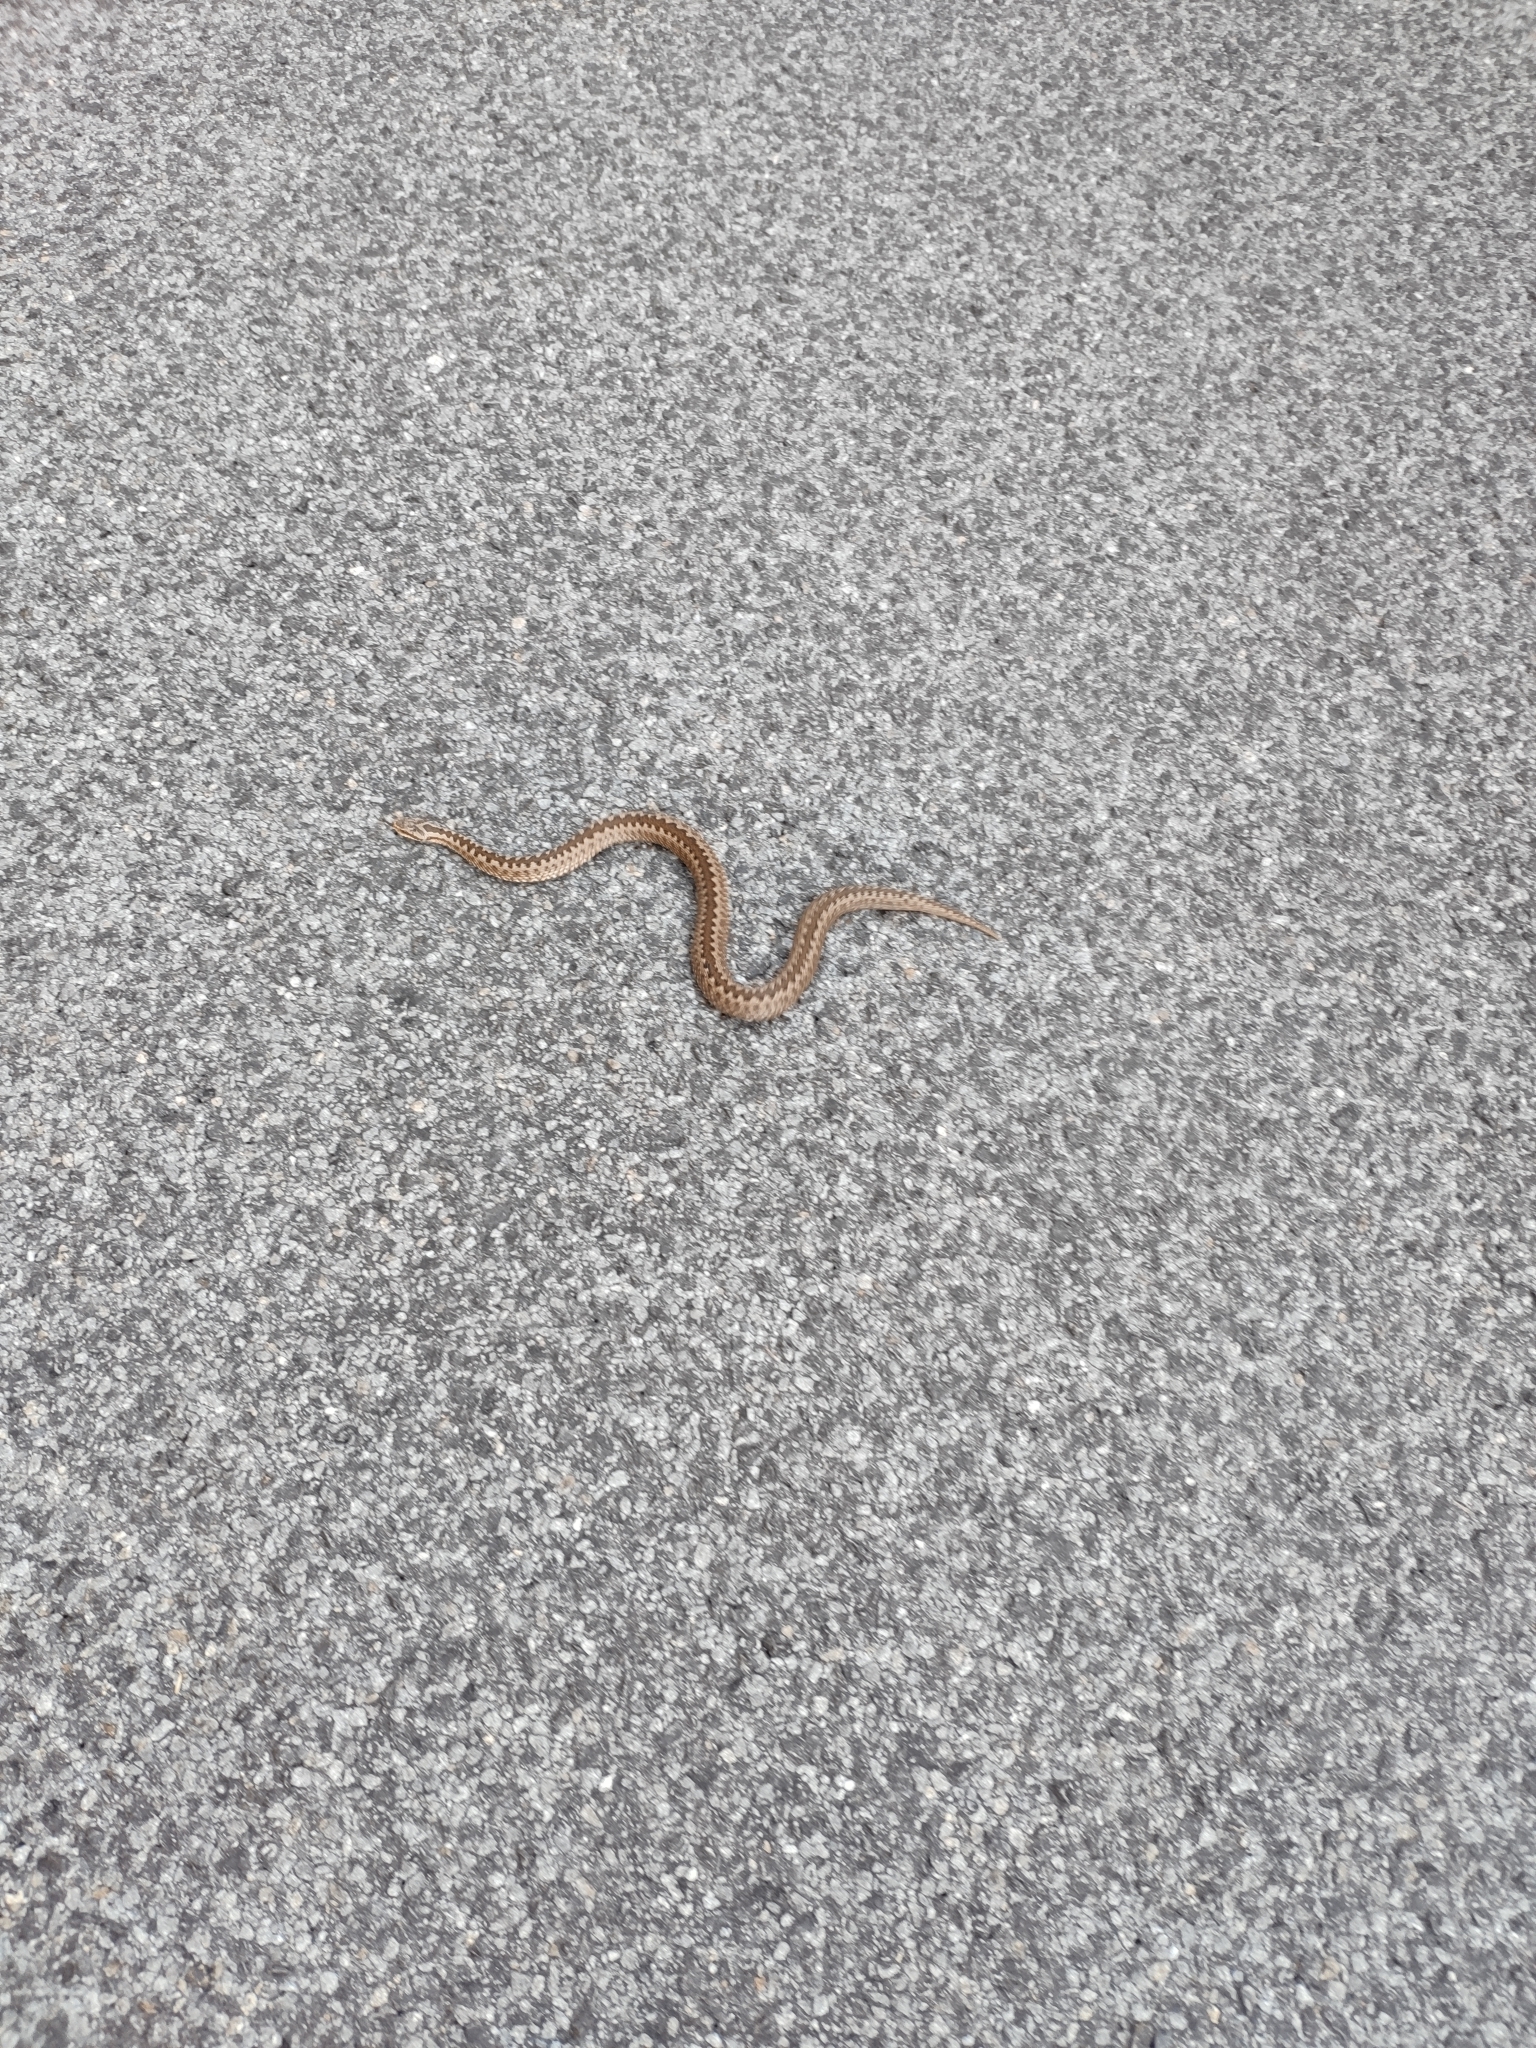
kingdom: Animalia
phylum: Chordata
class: Squamata
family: Viperidae
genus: Vipera
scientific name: Vipera berus
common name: Adder
